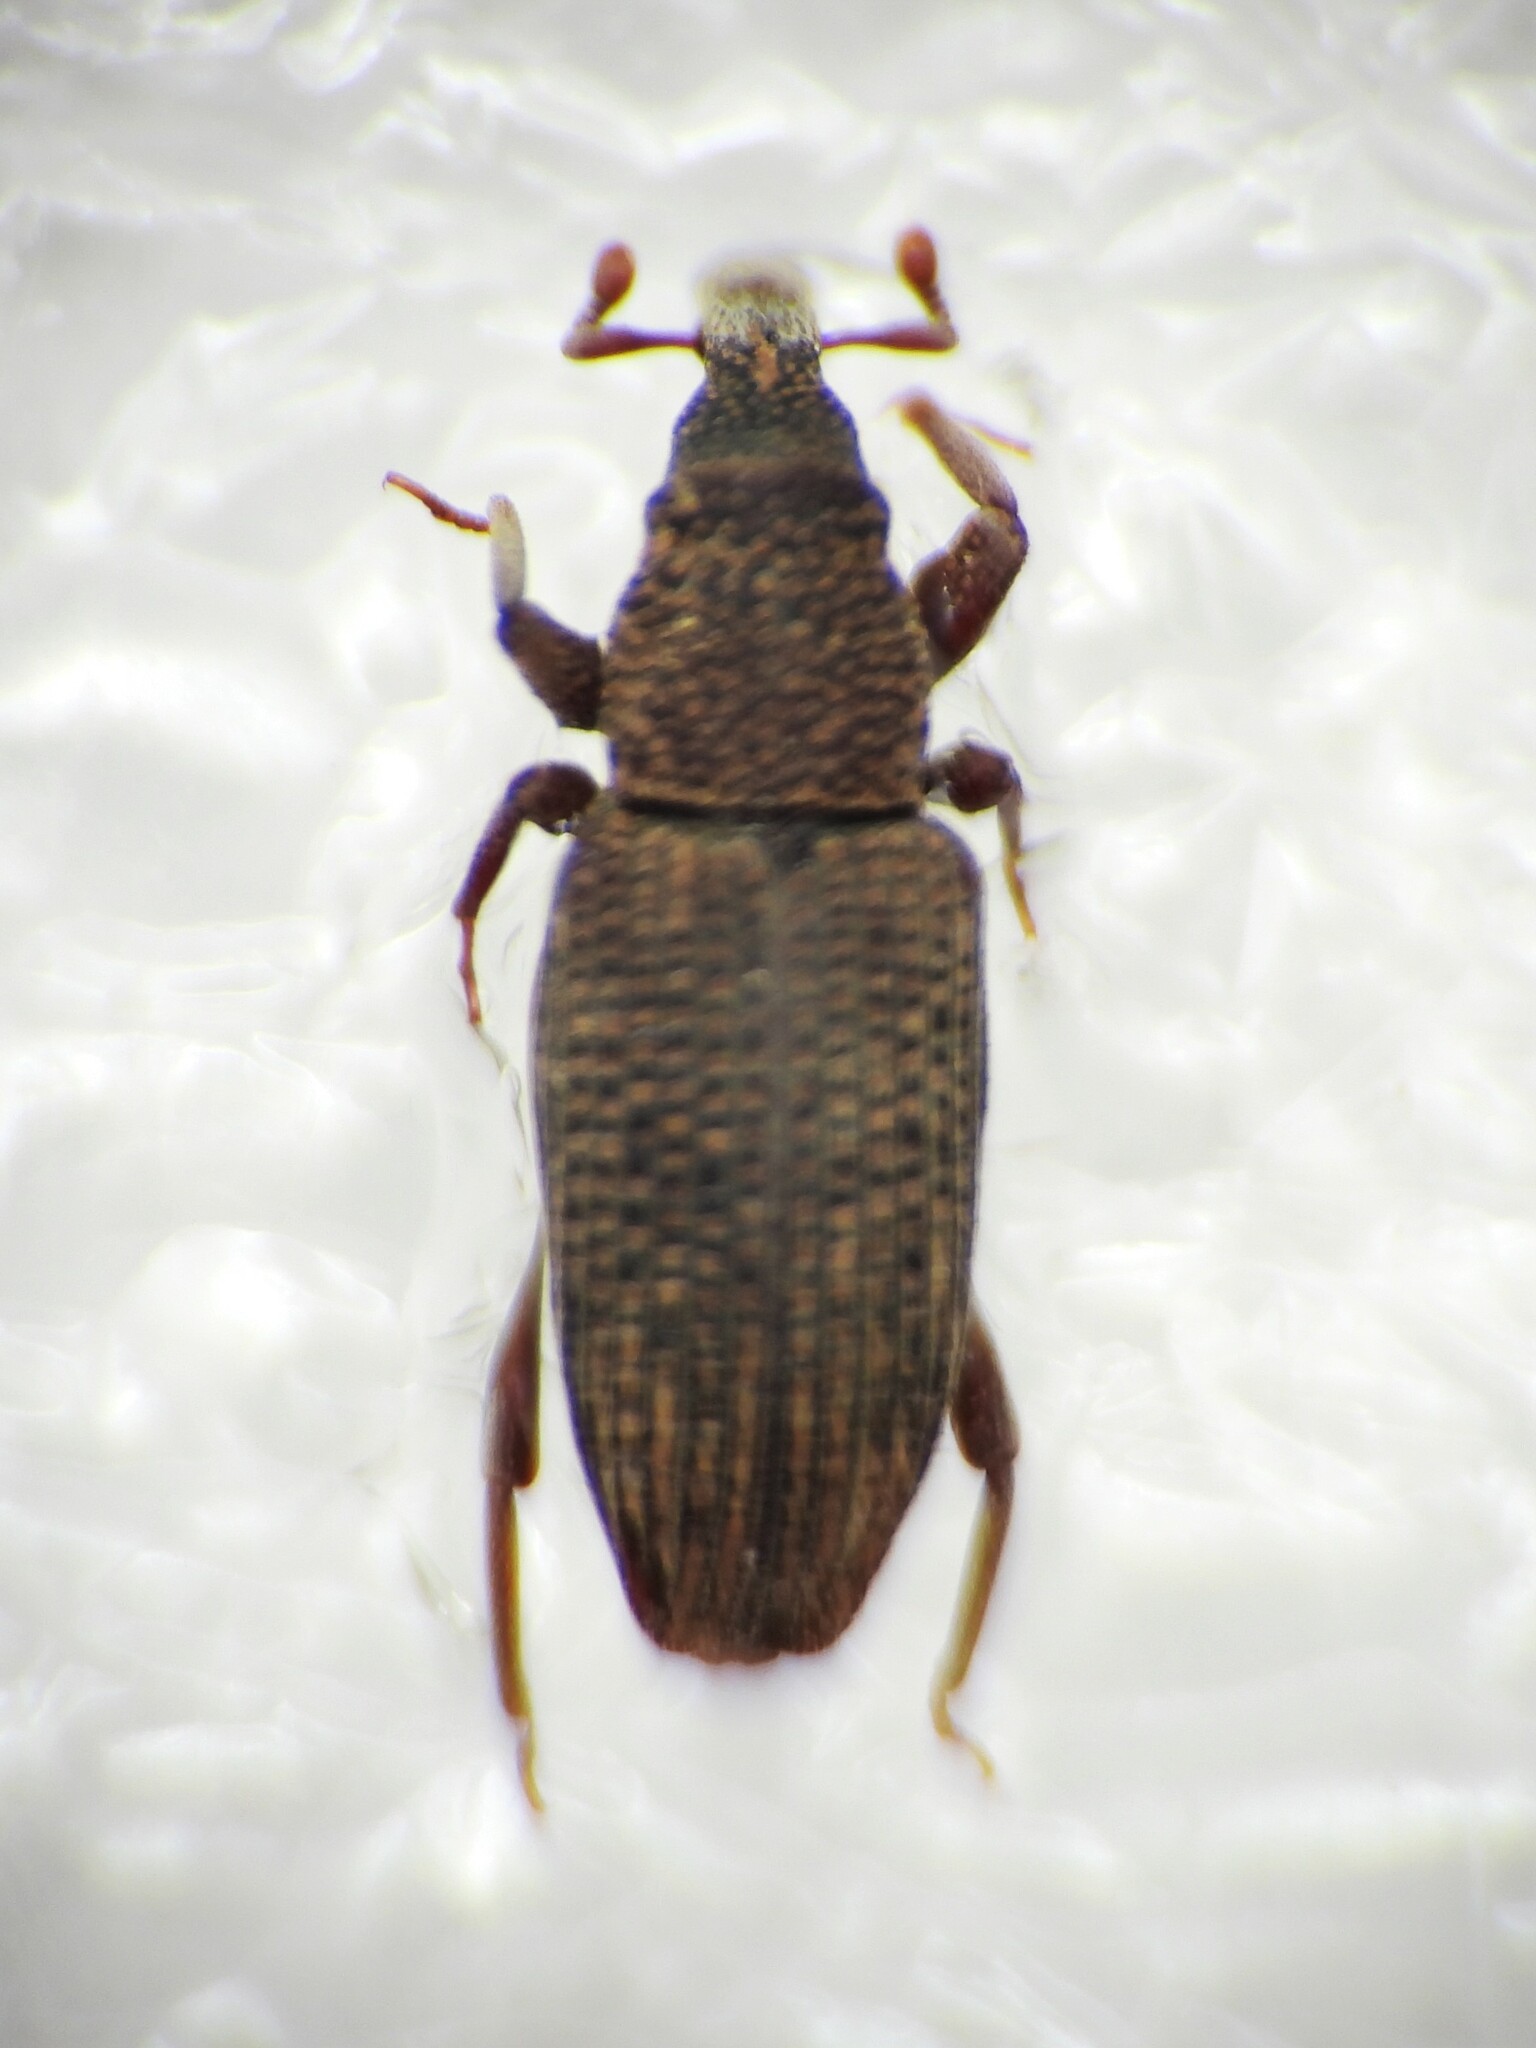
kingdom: Animalia
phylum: Arthropoda
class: Insecta
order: Coleoptera
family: Dryophthoridae
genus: Dryophthorus
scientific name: Dryophthorus corticalis
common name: Wood-boring weevil
